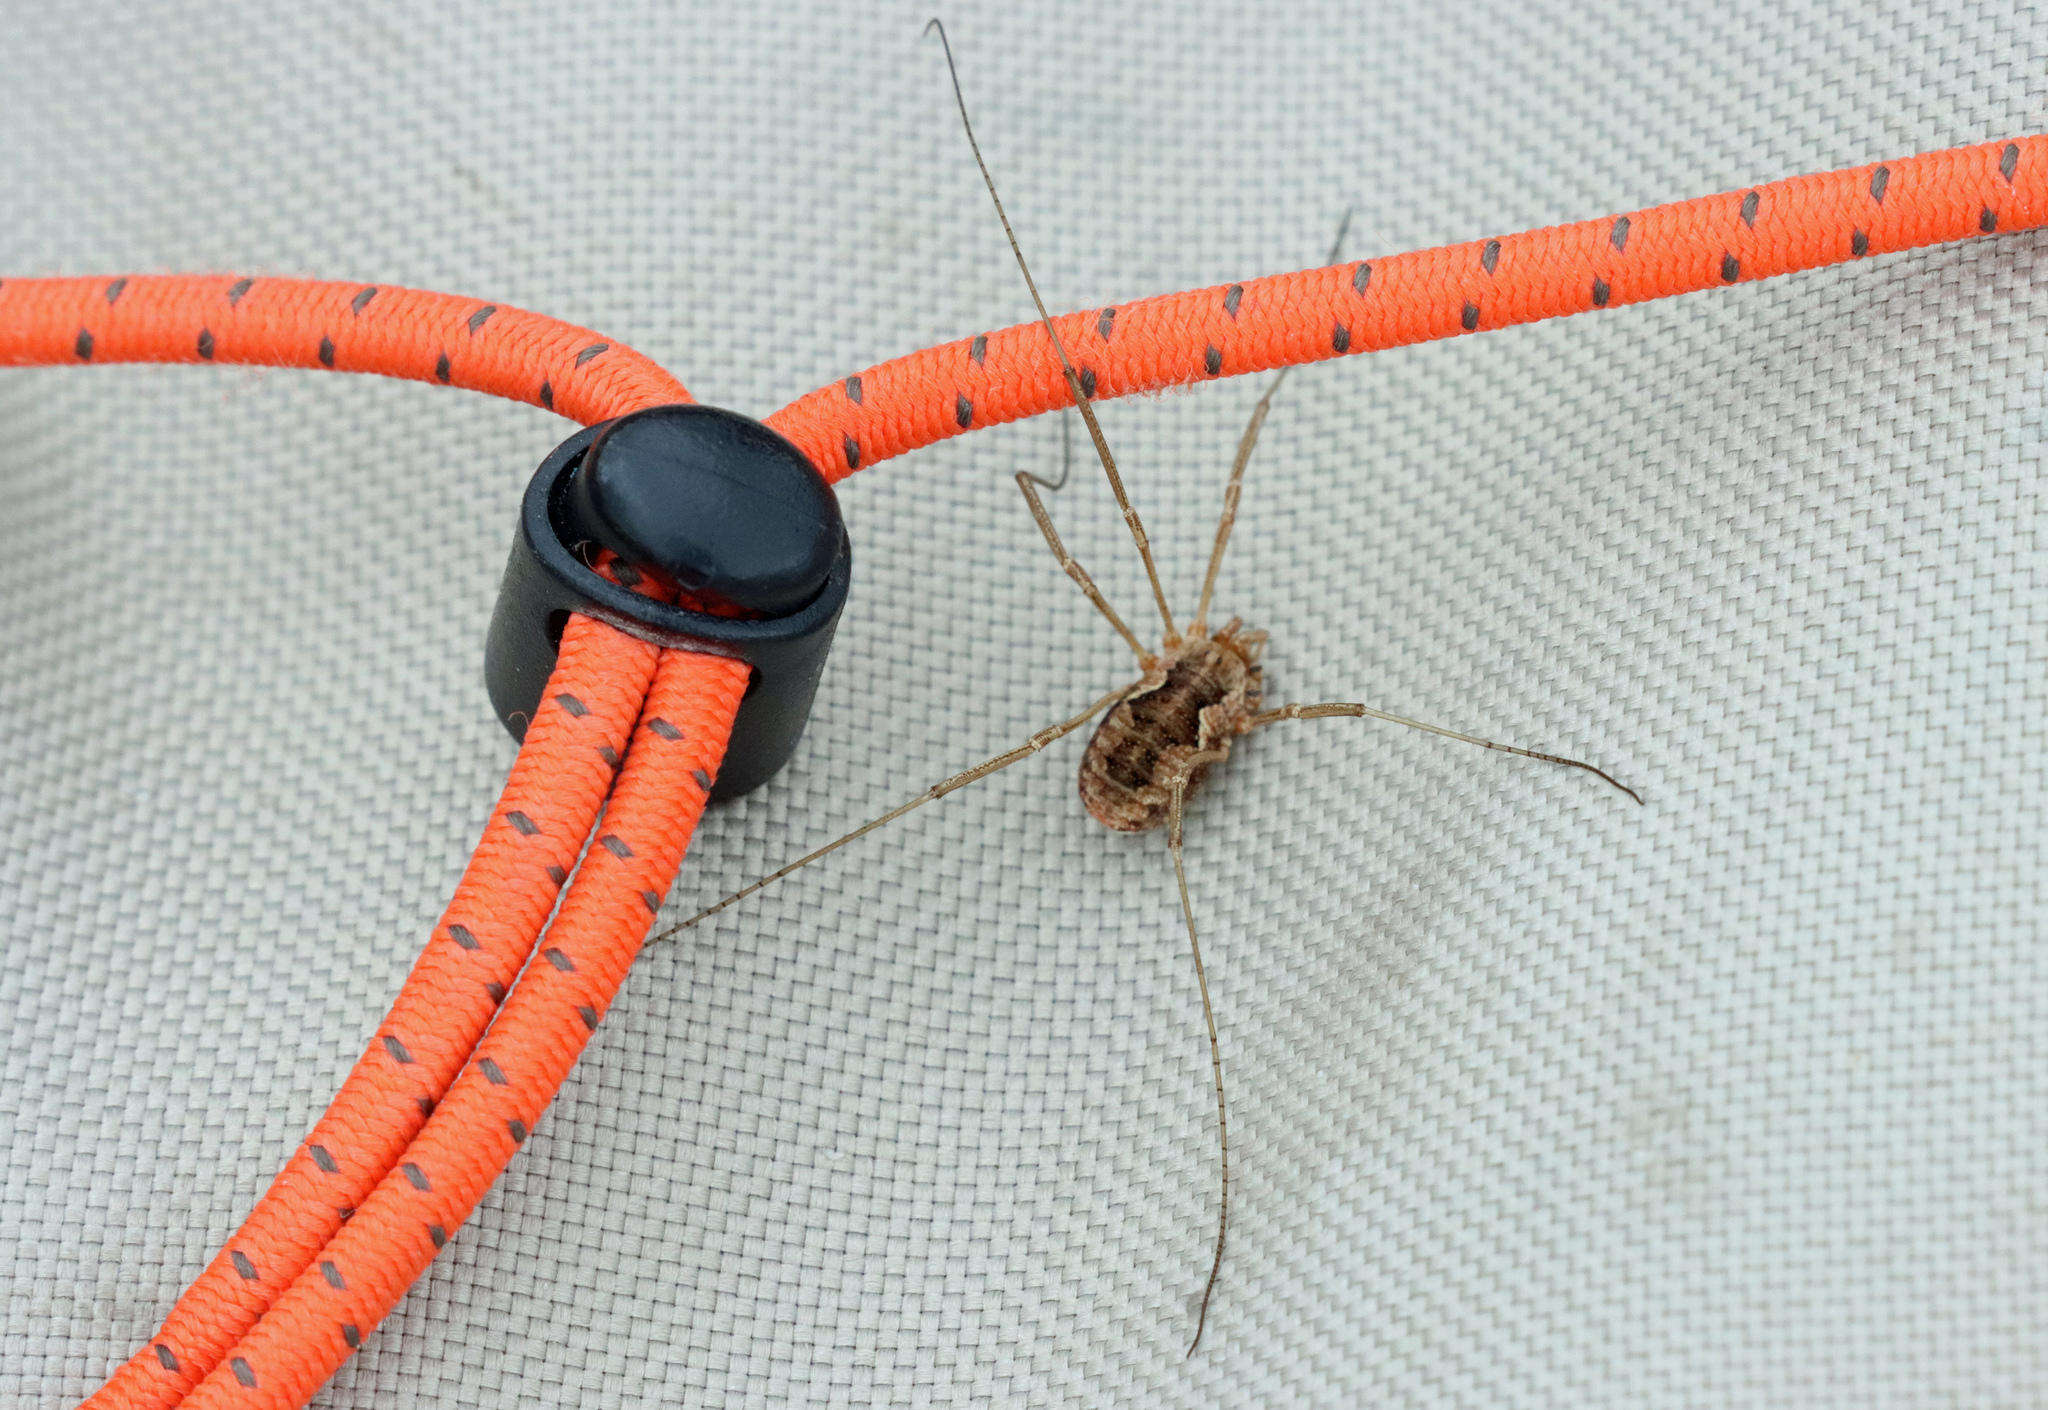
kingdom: Animalia
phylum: Arthropoda
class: Arachnida
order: Opiliones
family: Phalangiidae
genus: Phalangium
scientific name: Phalangium opilio
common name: Daddy longleg
